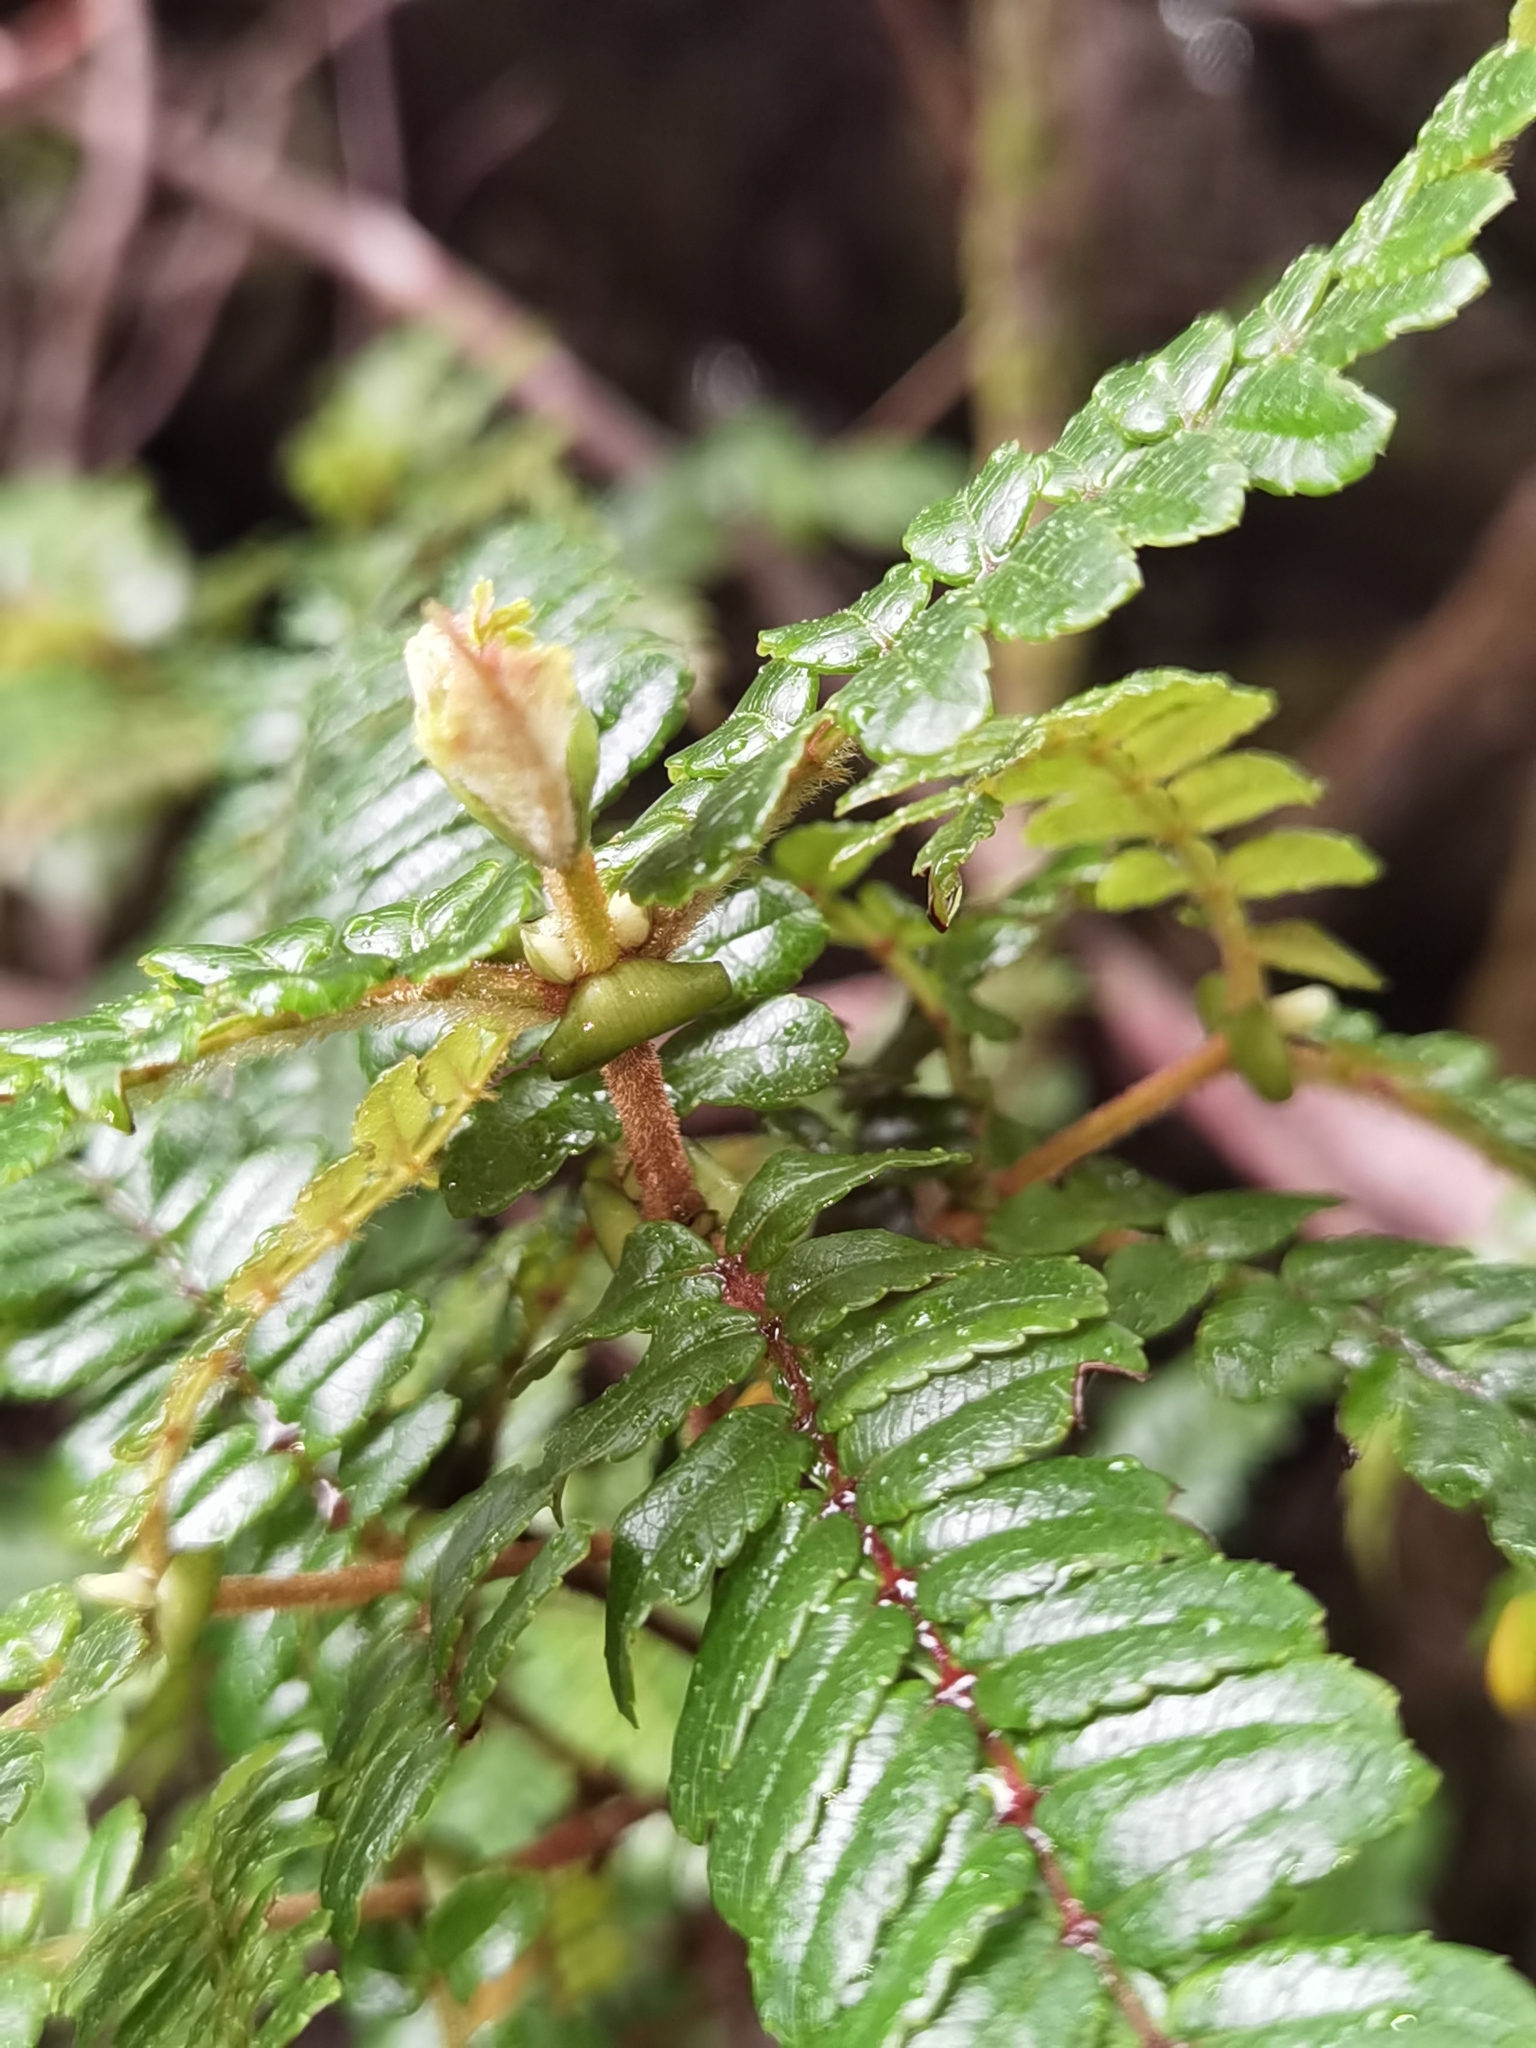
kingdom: Plantae
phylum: Tracheophyta
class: Magnoliopsida
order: Oxalidales
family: Cunoniaceae
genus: Weinmannia
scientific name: Weinmannia vulcanicola
